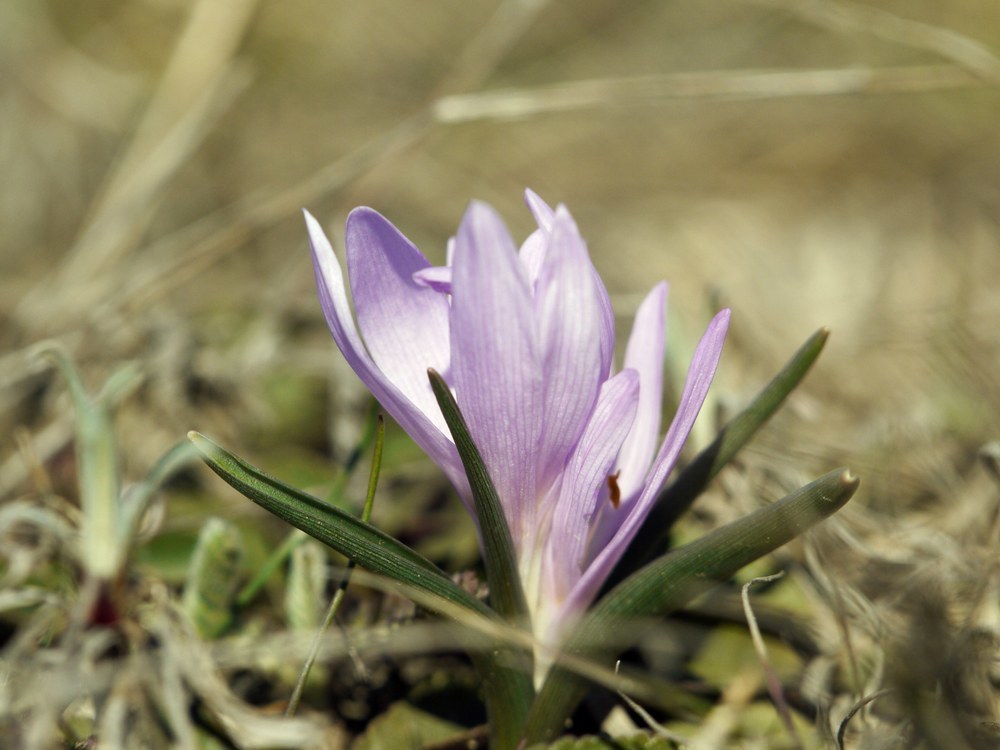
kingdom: Plantae
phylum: Tracheophyta
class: Liliopsida
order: Liliales
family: Colchicaceae
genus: Colchicum
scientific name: Colchicum bulbocodium
